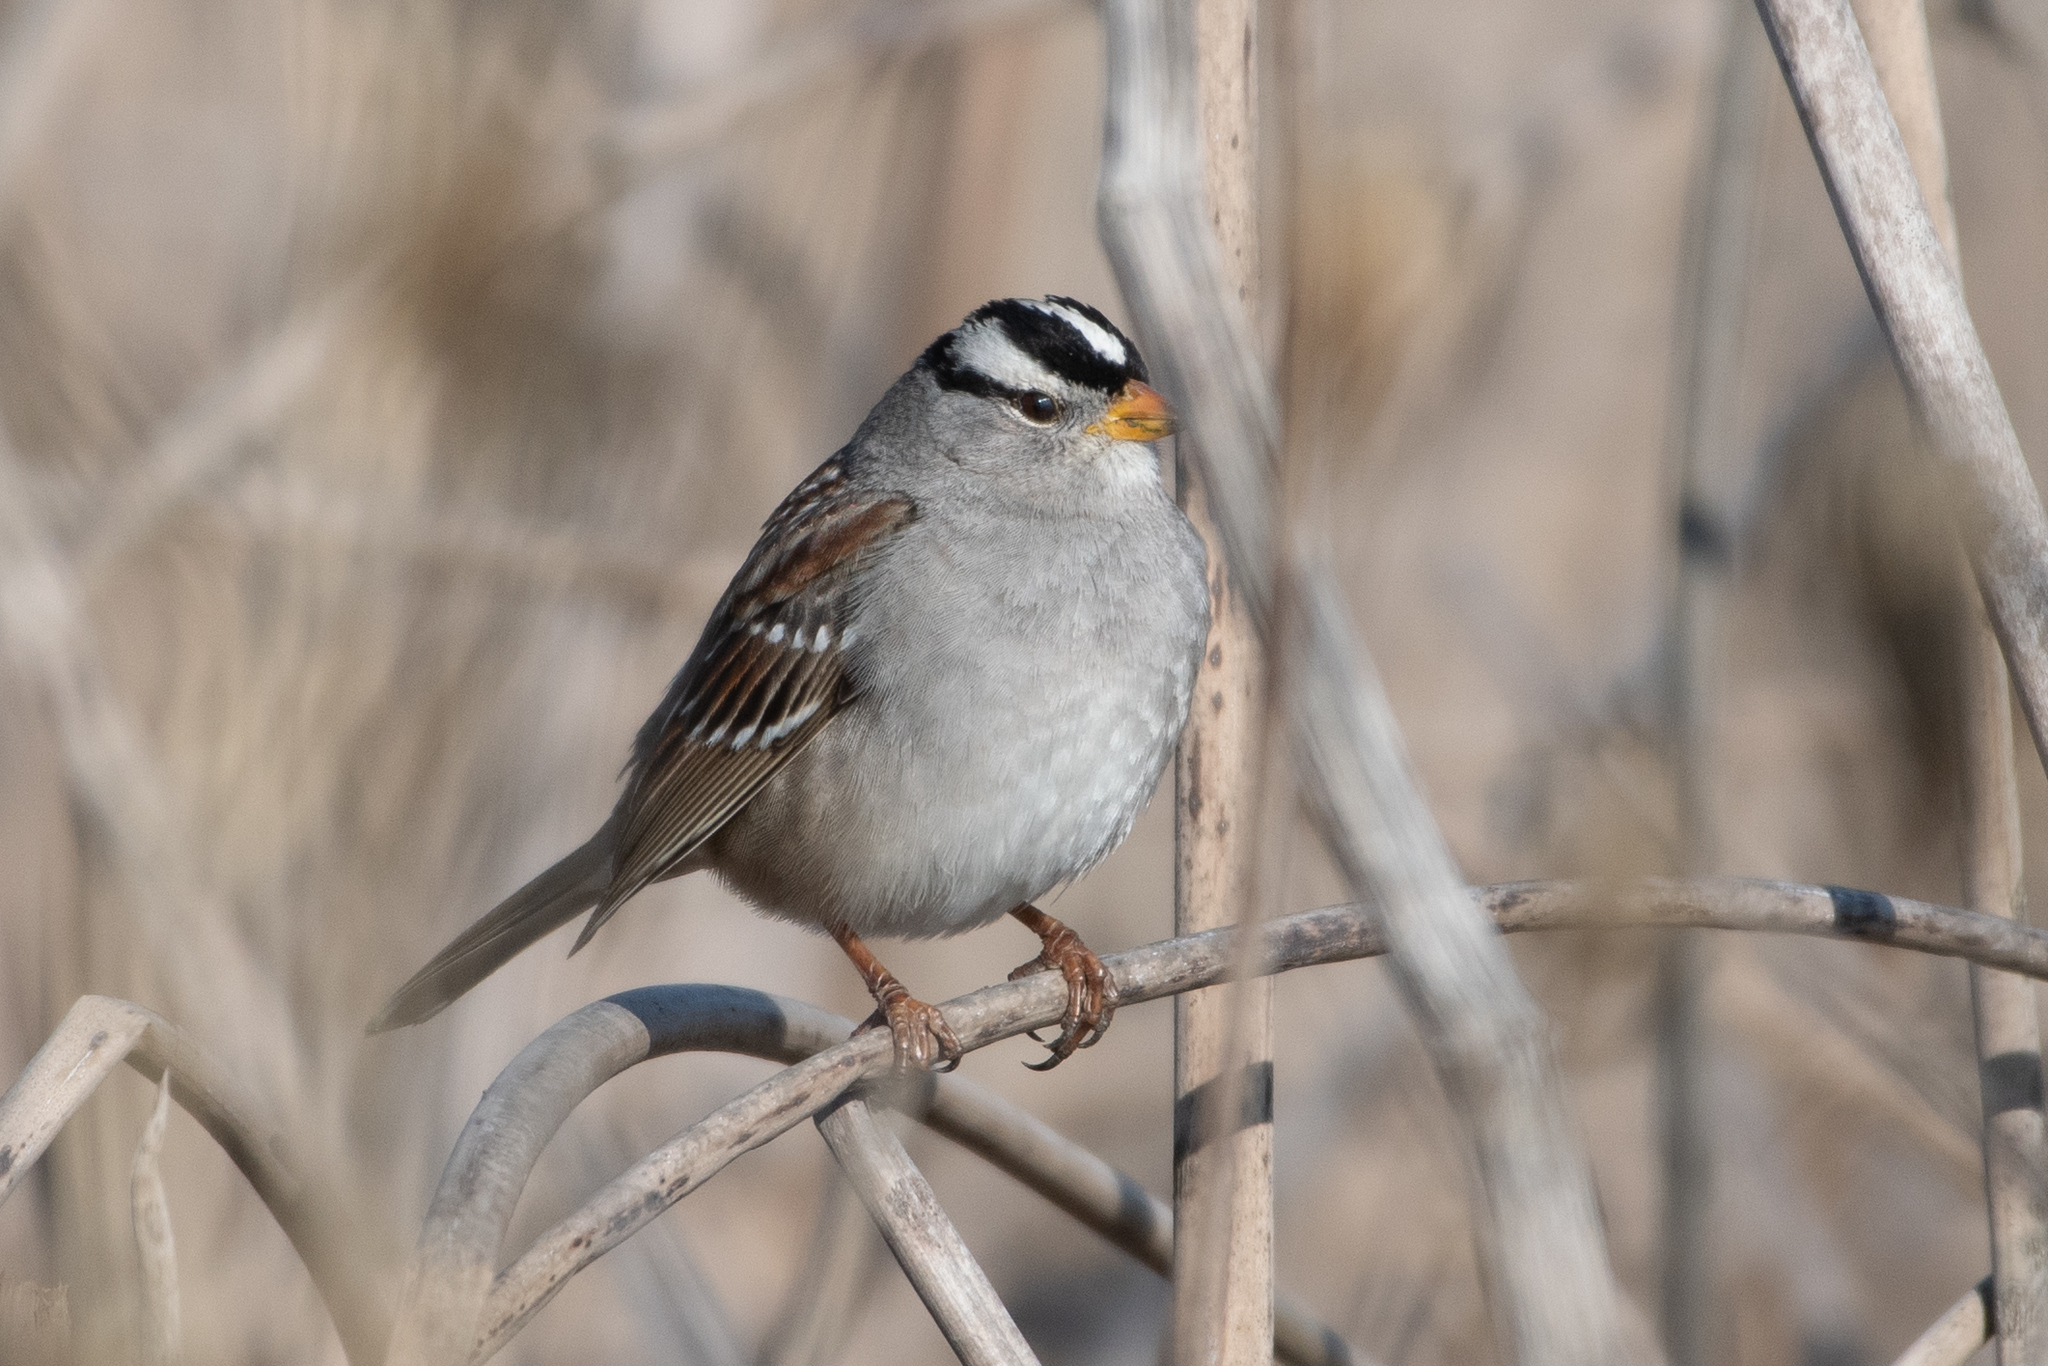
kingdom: Animalia
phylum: Chordata
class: Aves
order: Passeriformes
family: Passerellidae
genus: Zonotrichia
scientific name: Zonotrichia leucophrys
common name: White-crowned sparrow
